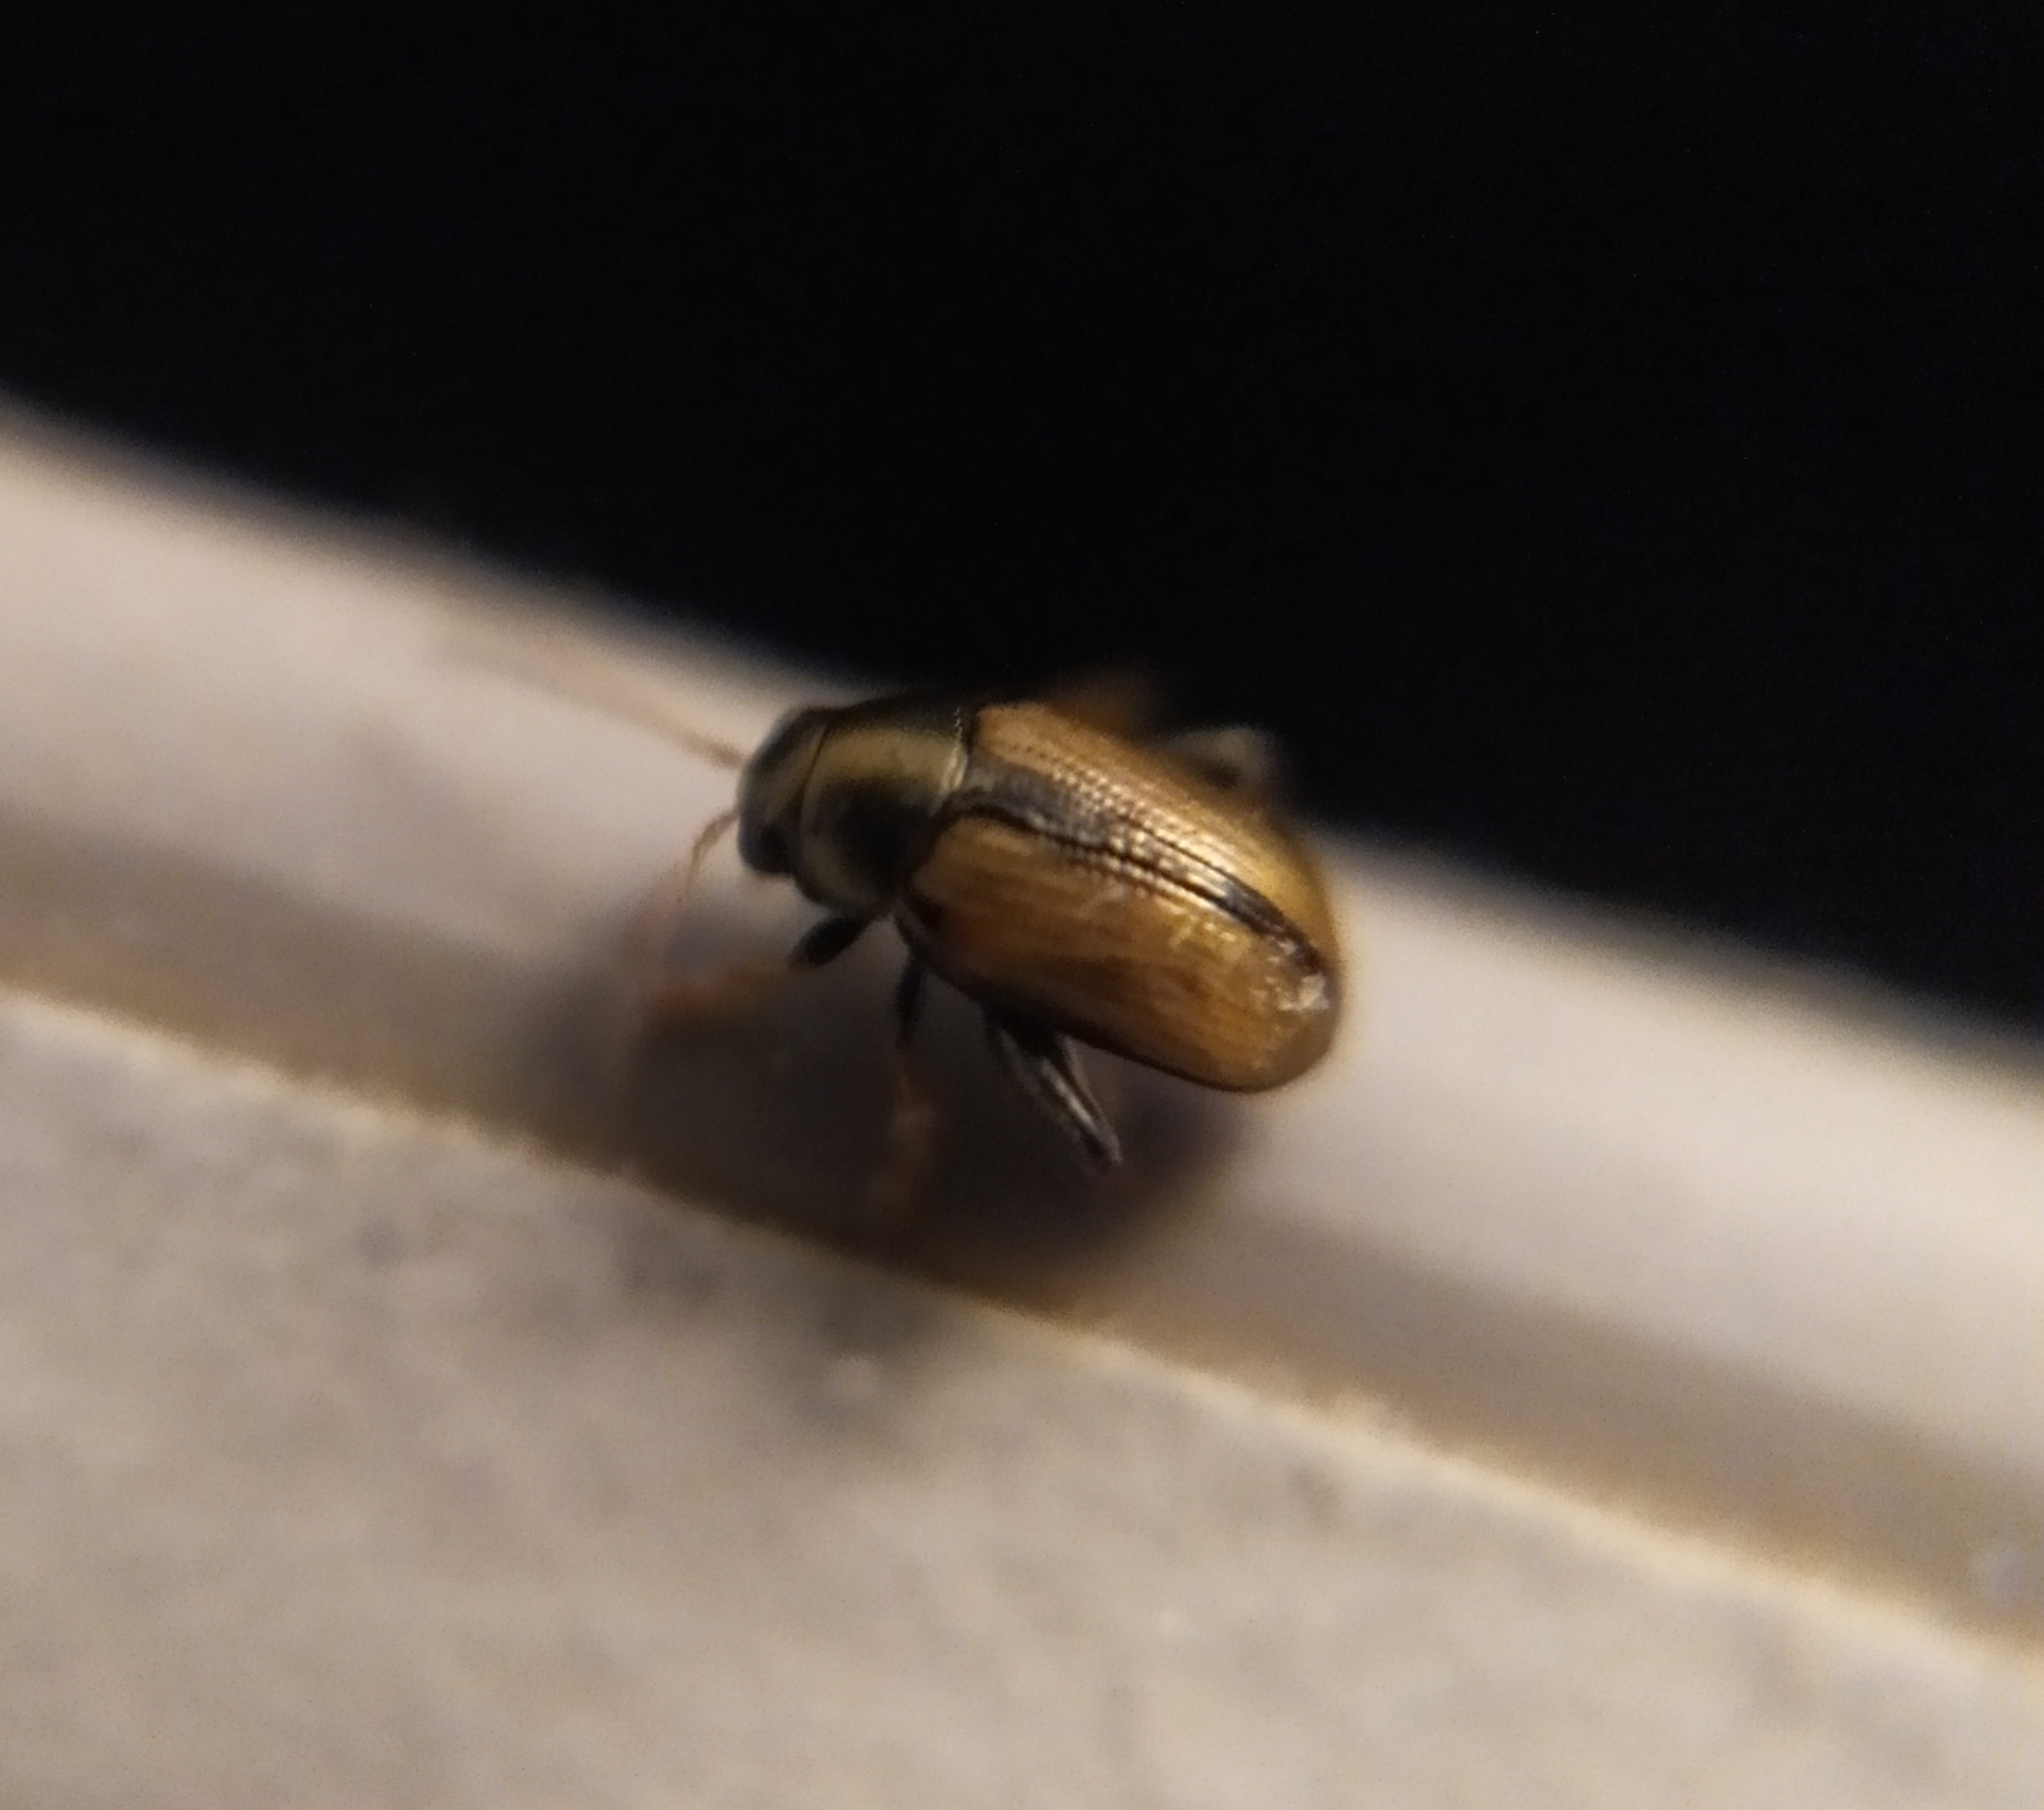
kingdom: Animalia
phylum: Arthropoda
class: Insecta
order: Coleoptera
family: Chrysomelidae
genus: Chaetocnema
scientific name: Chaetocnema conducta
